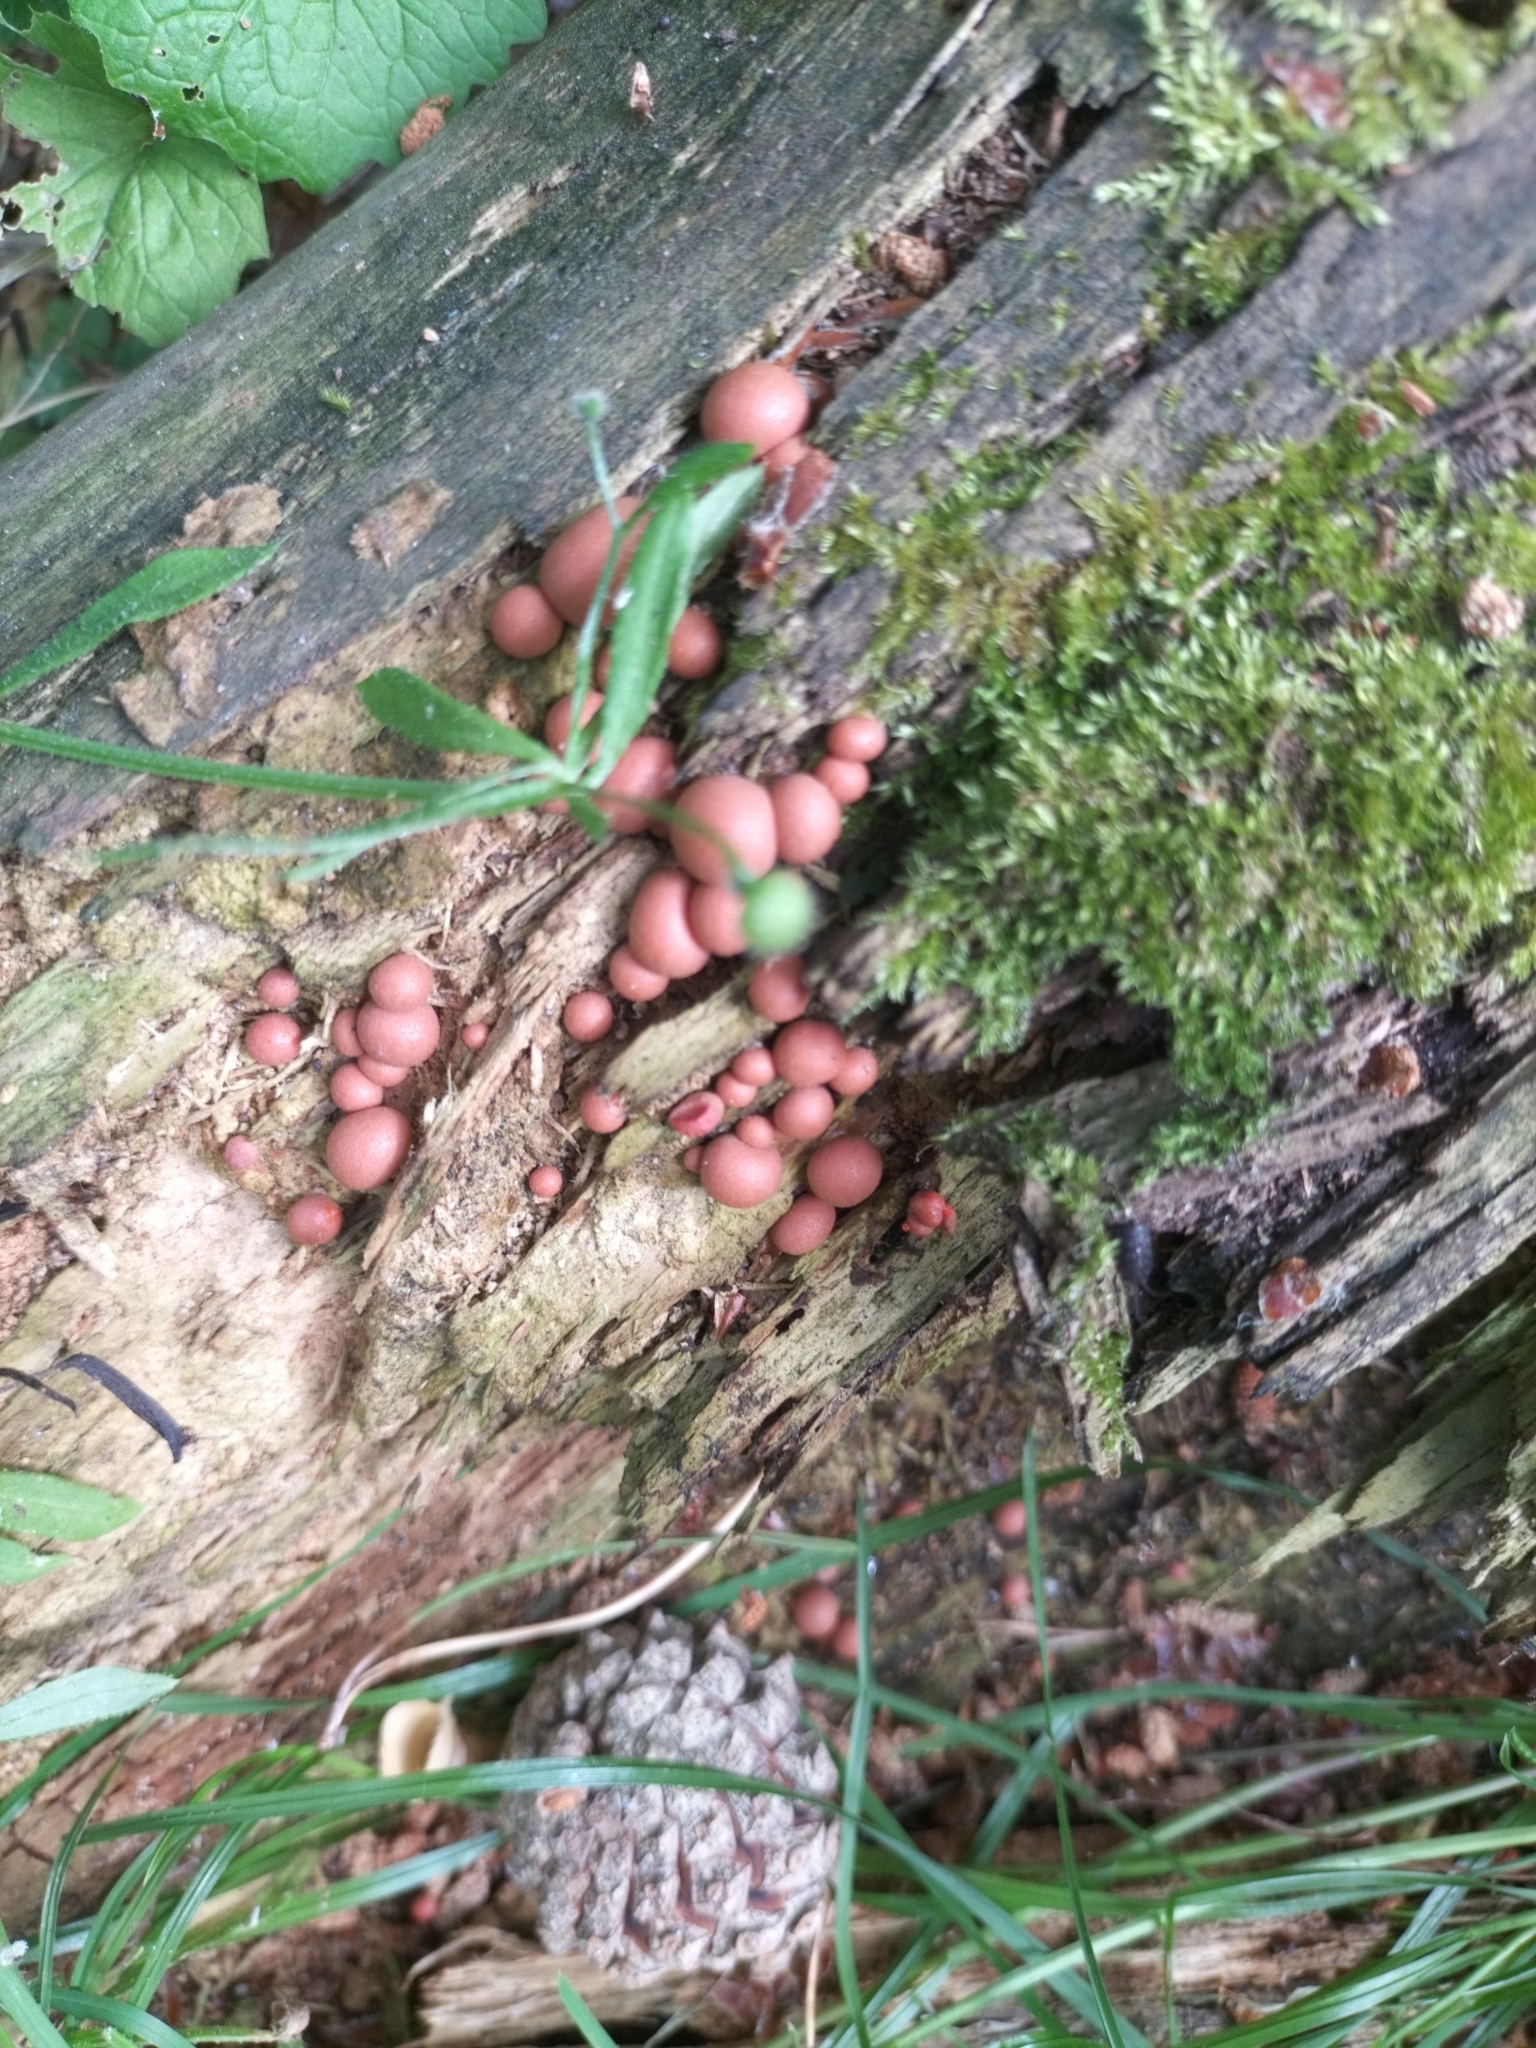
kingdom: Protozoa
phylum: Mycetozoa
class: Myxomycetes
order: Cribrariales
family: Tubiferaceae
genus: Lycogala
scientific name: Lycogala epidendrum
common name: Wolf's milk
